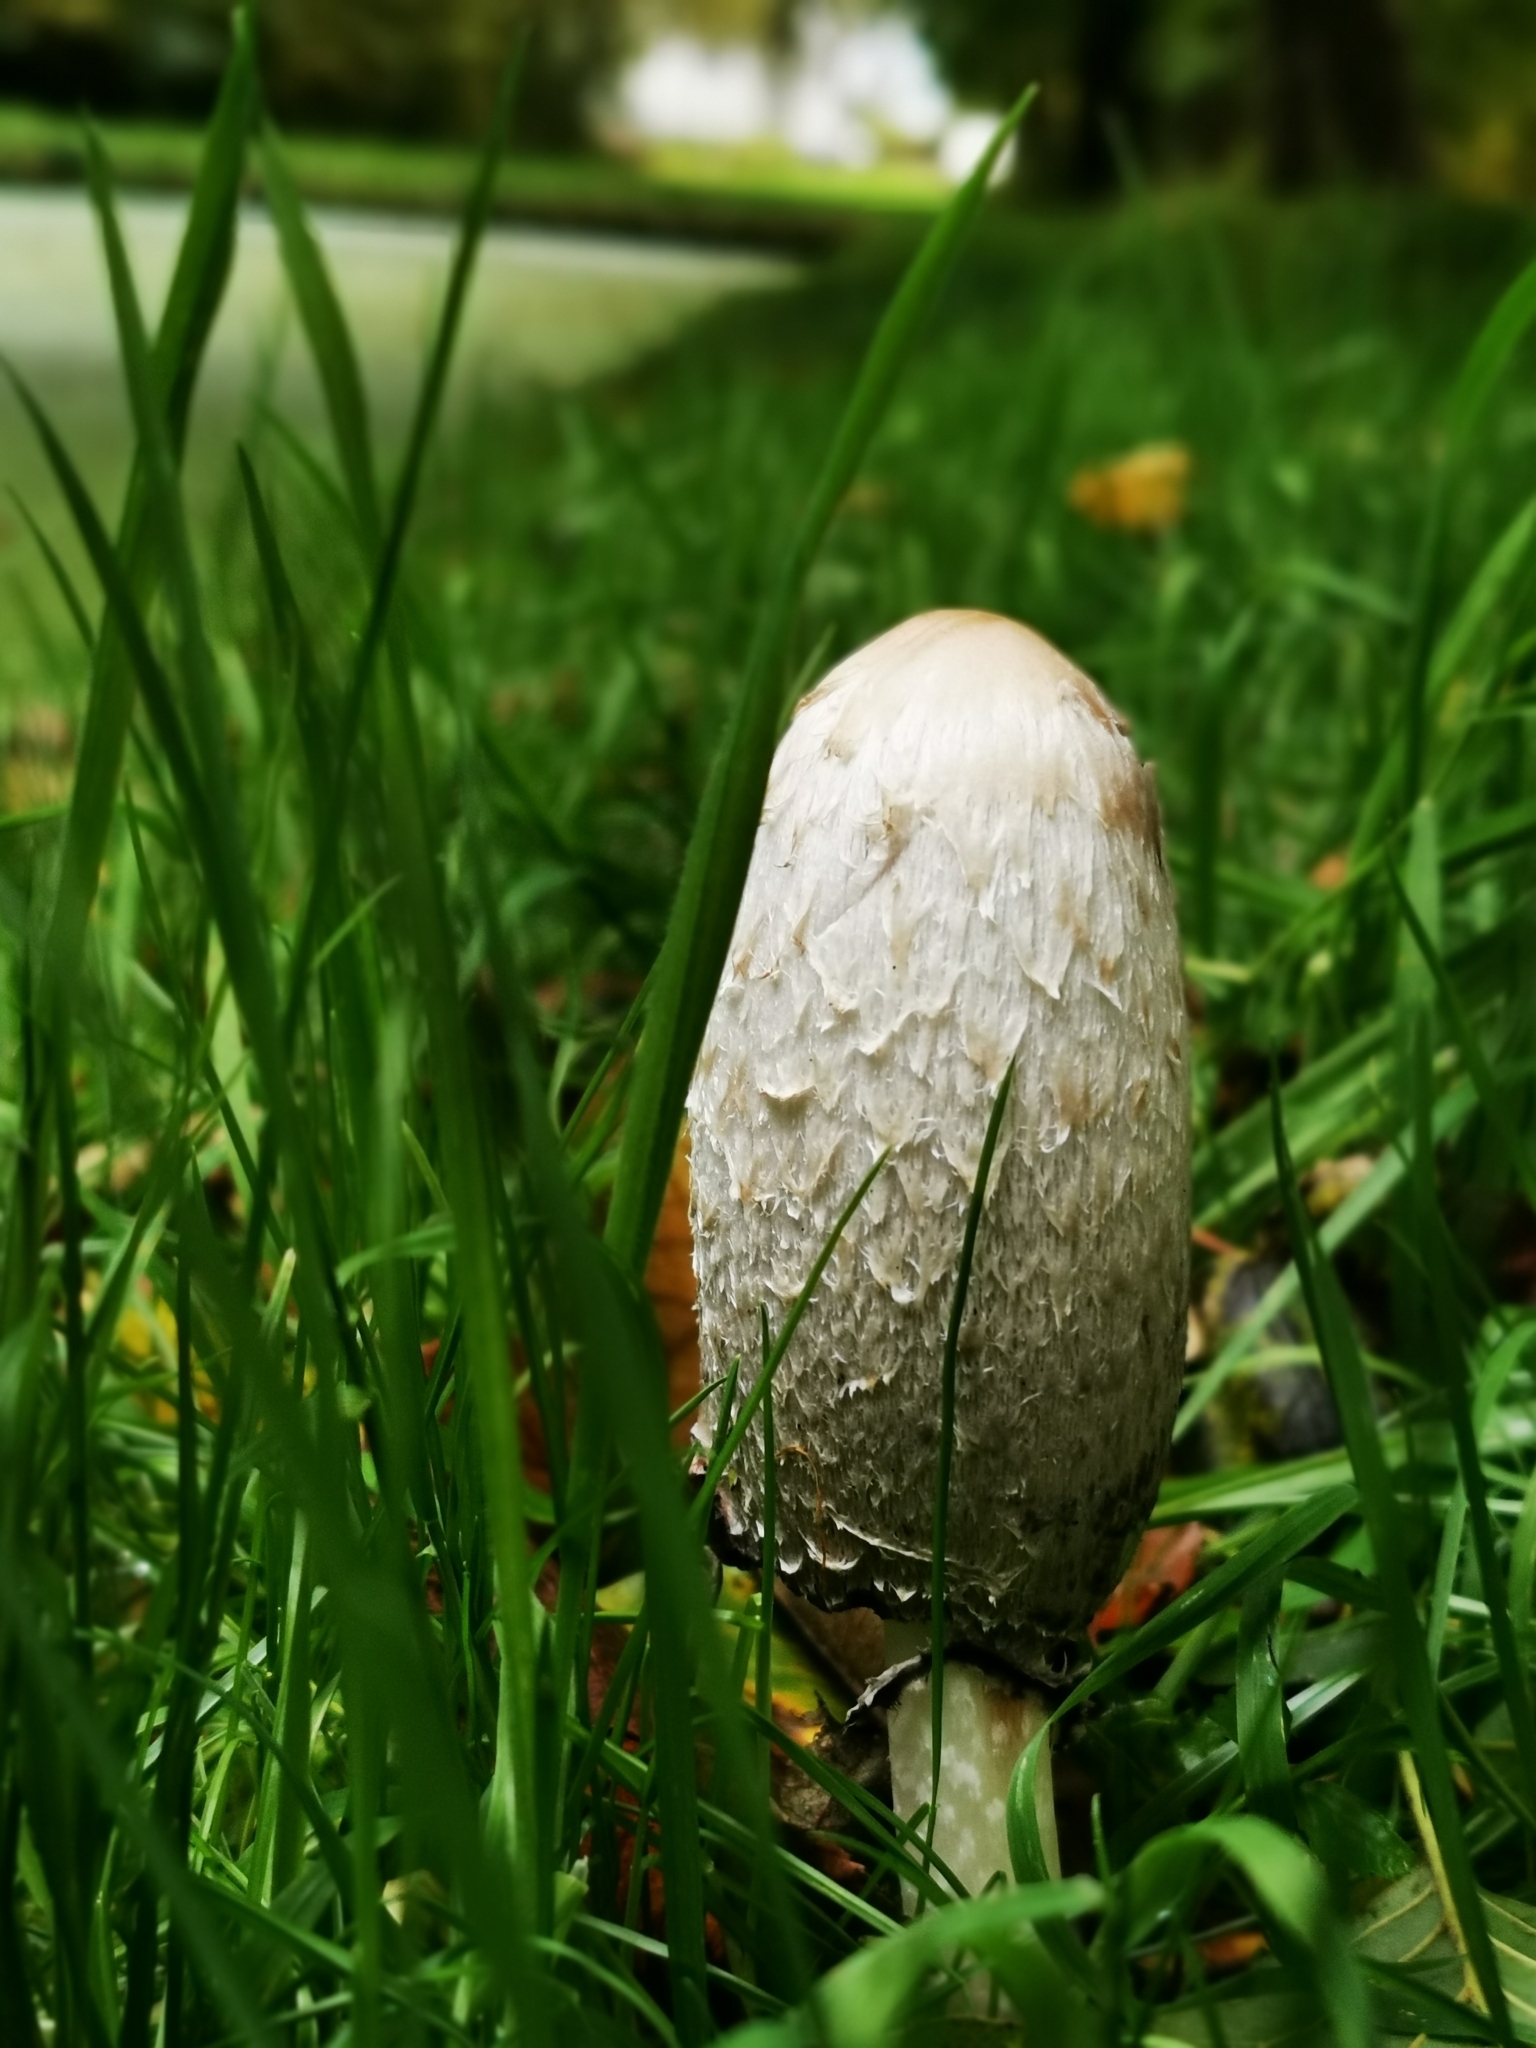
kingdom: Fungi
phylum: Basidiomycota
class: Agaricomycetes
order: Agaricales
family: Agaricaceae
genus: Coprinus
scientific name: Coprinus comatus
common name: Lawyer's wig
